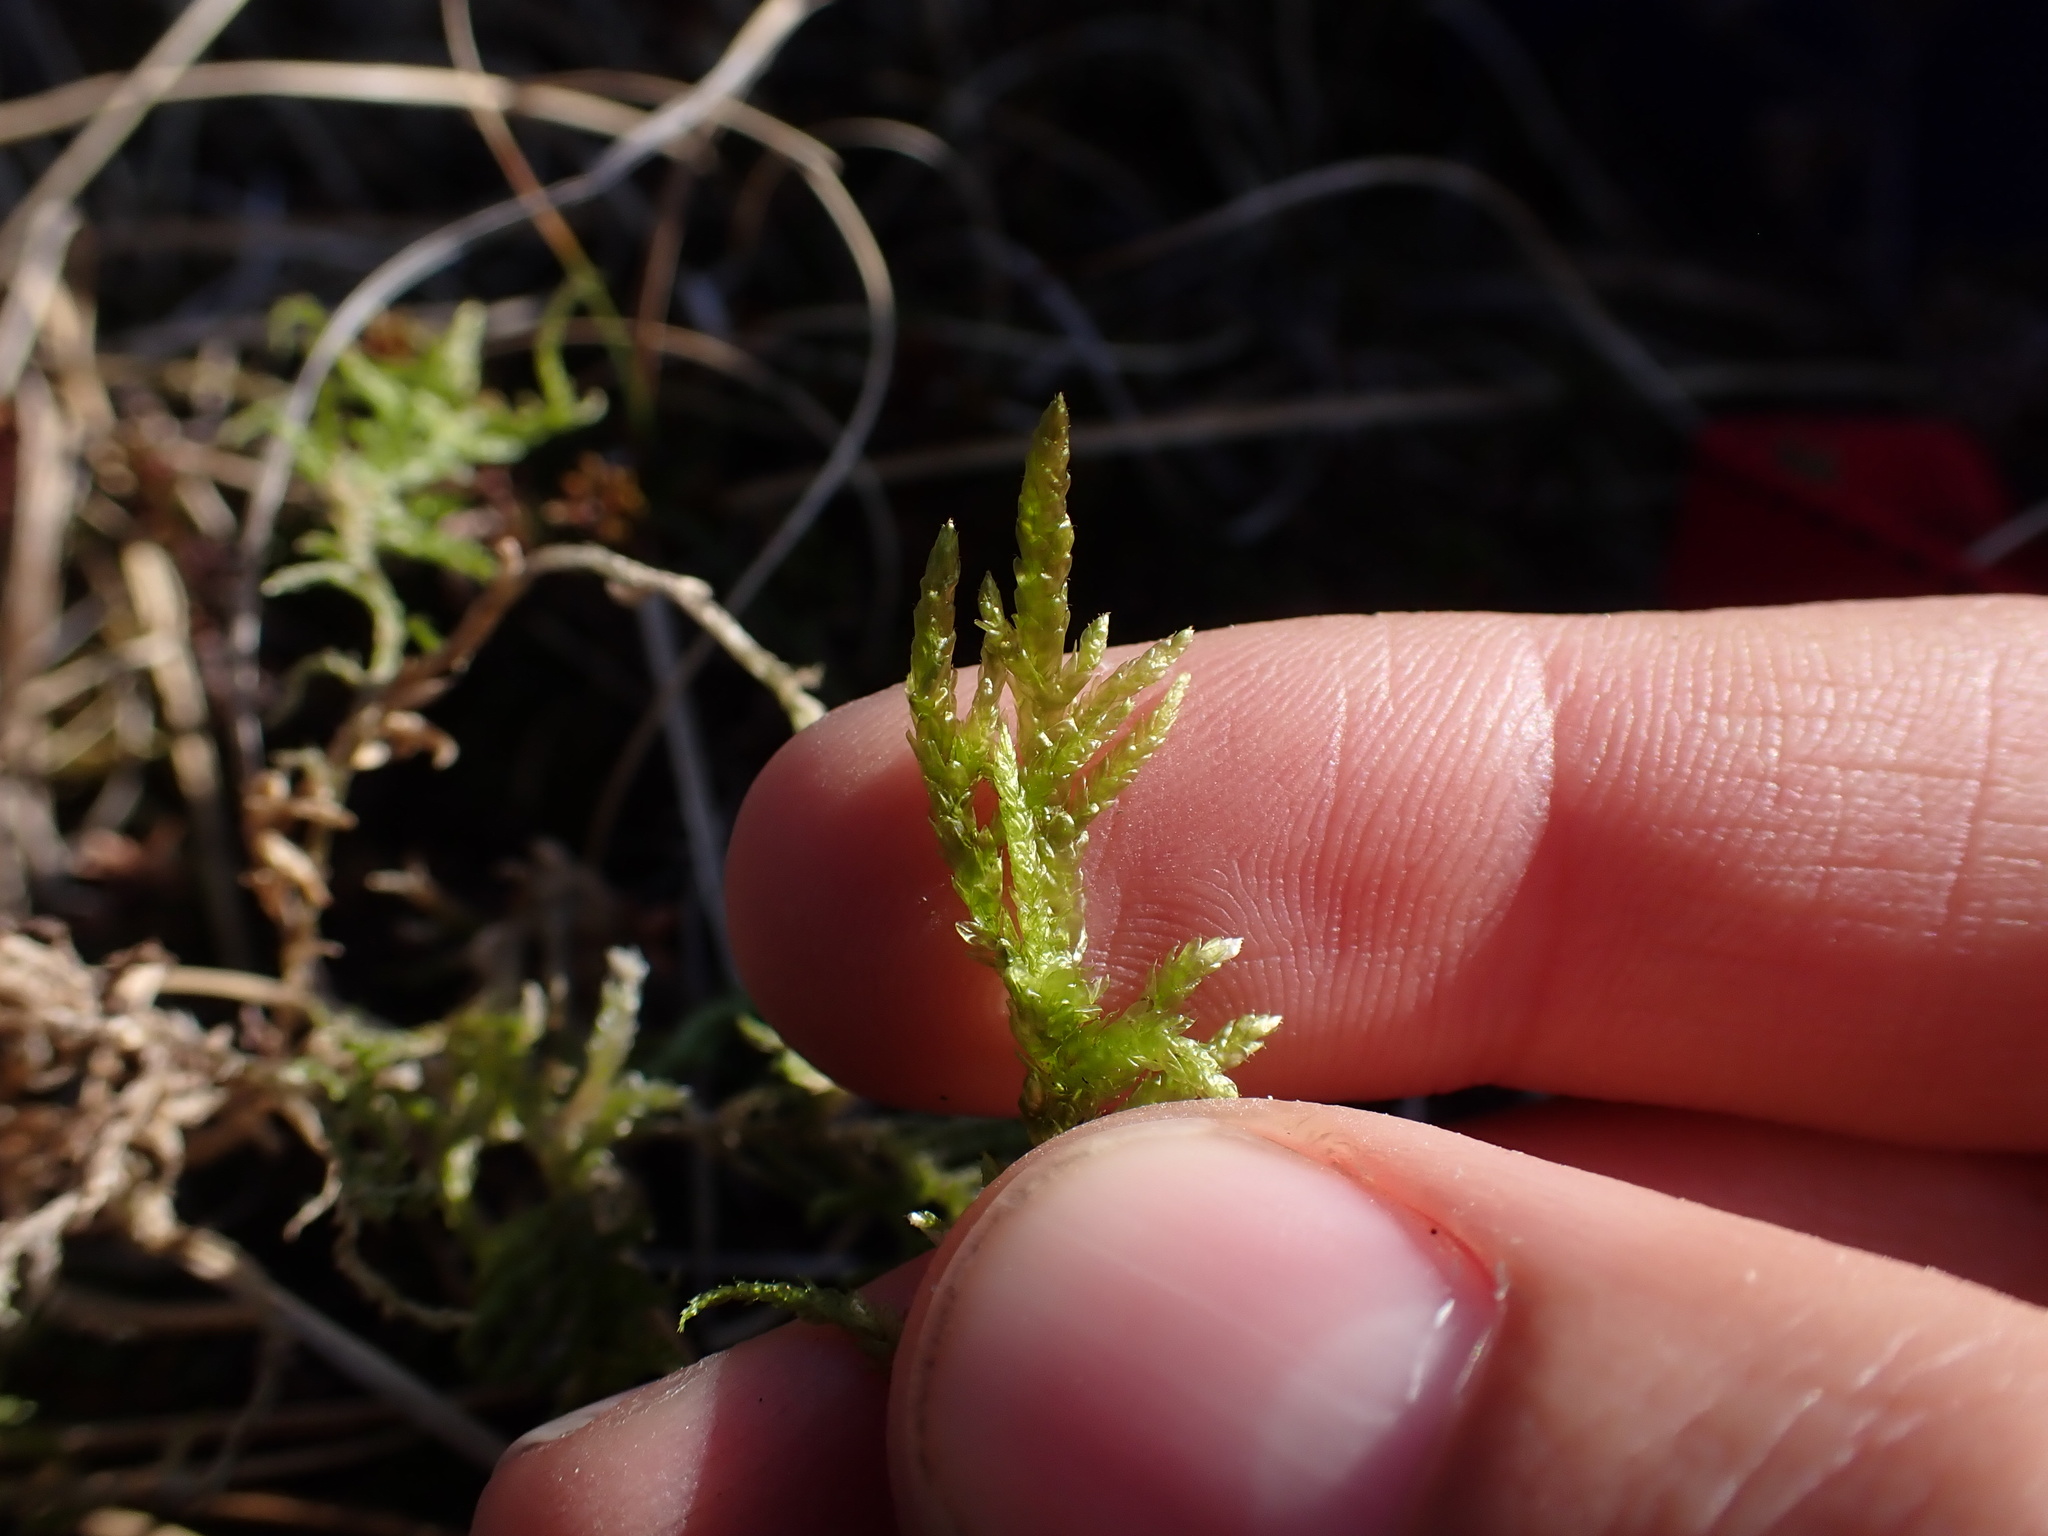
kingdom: Plantae
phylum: Bryophyta
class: Bryopsida
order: Hypnales
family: Brachytheciaceae
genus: Pseudoscleropodium
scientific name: Pseudoscleropodium purum
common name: Neat feather-moss
